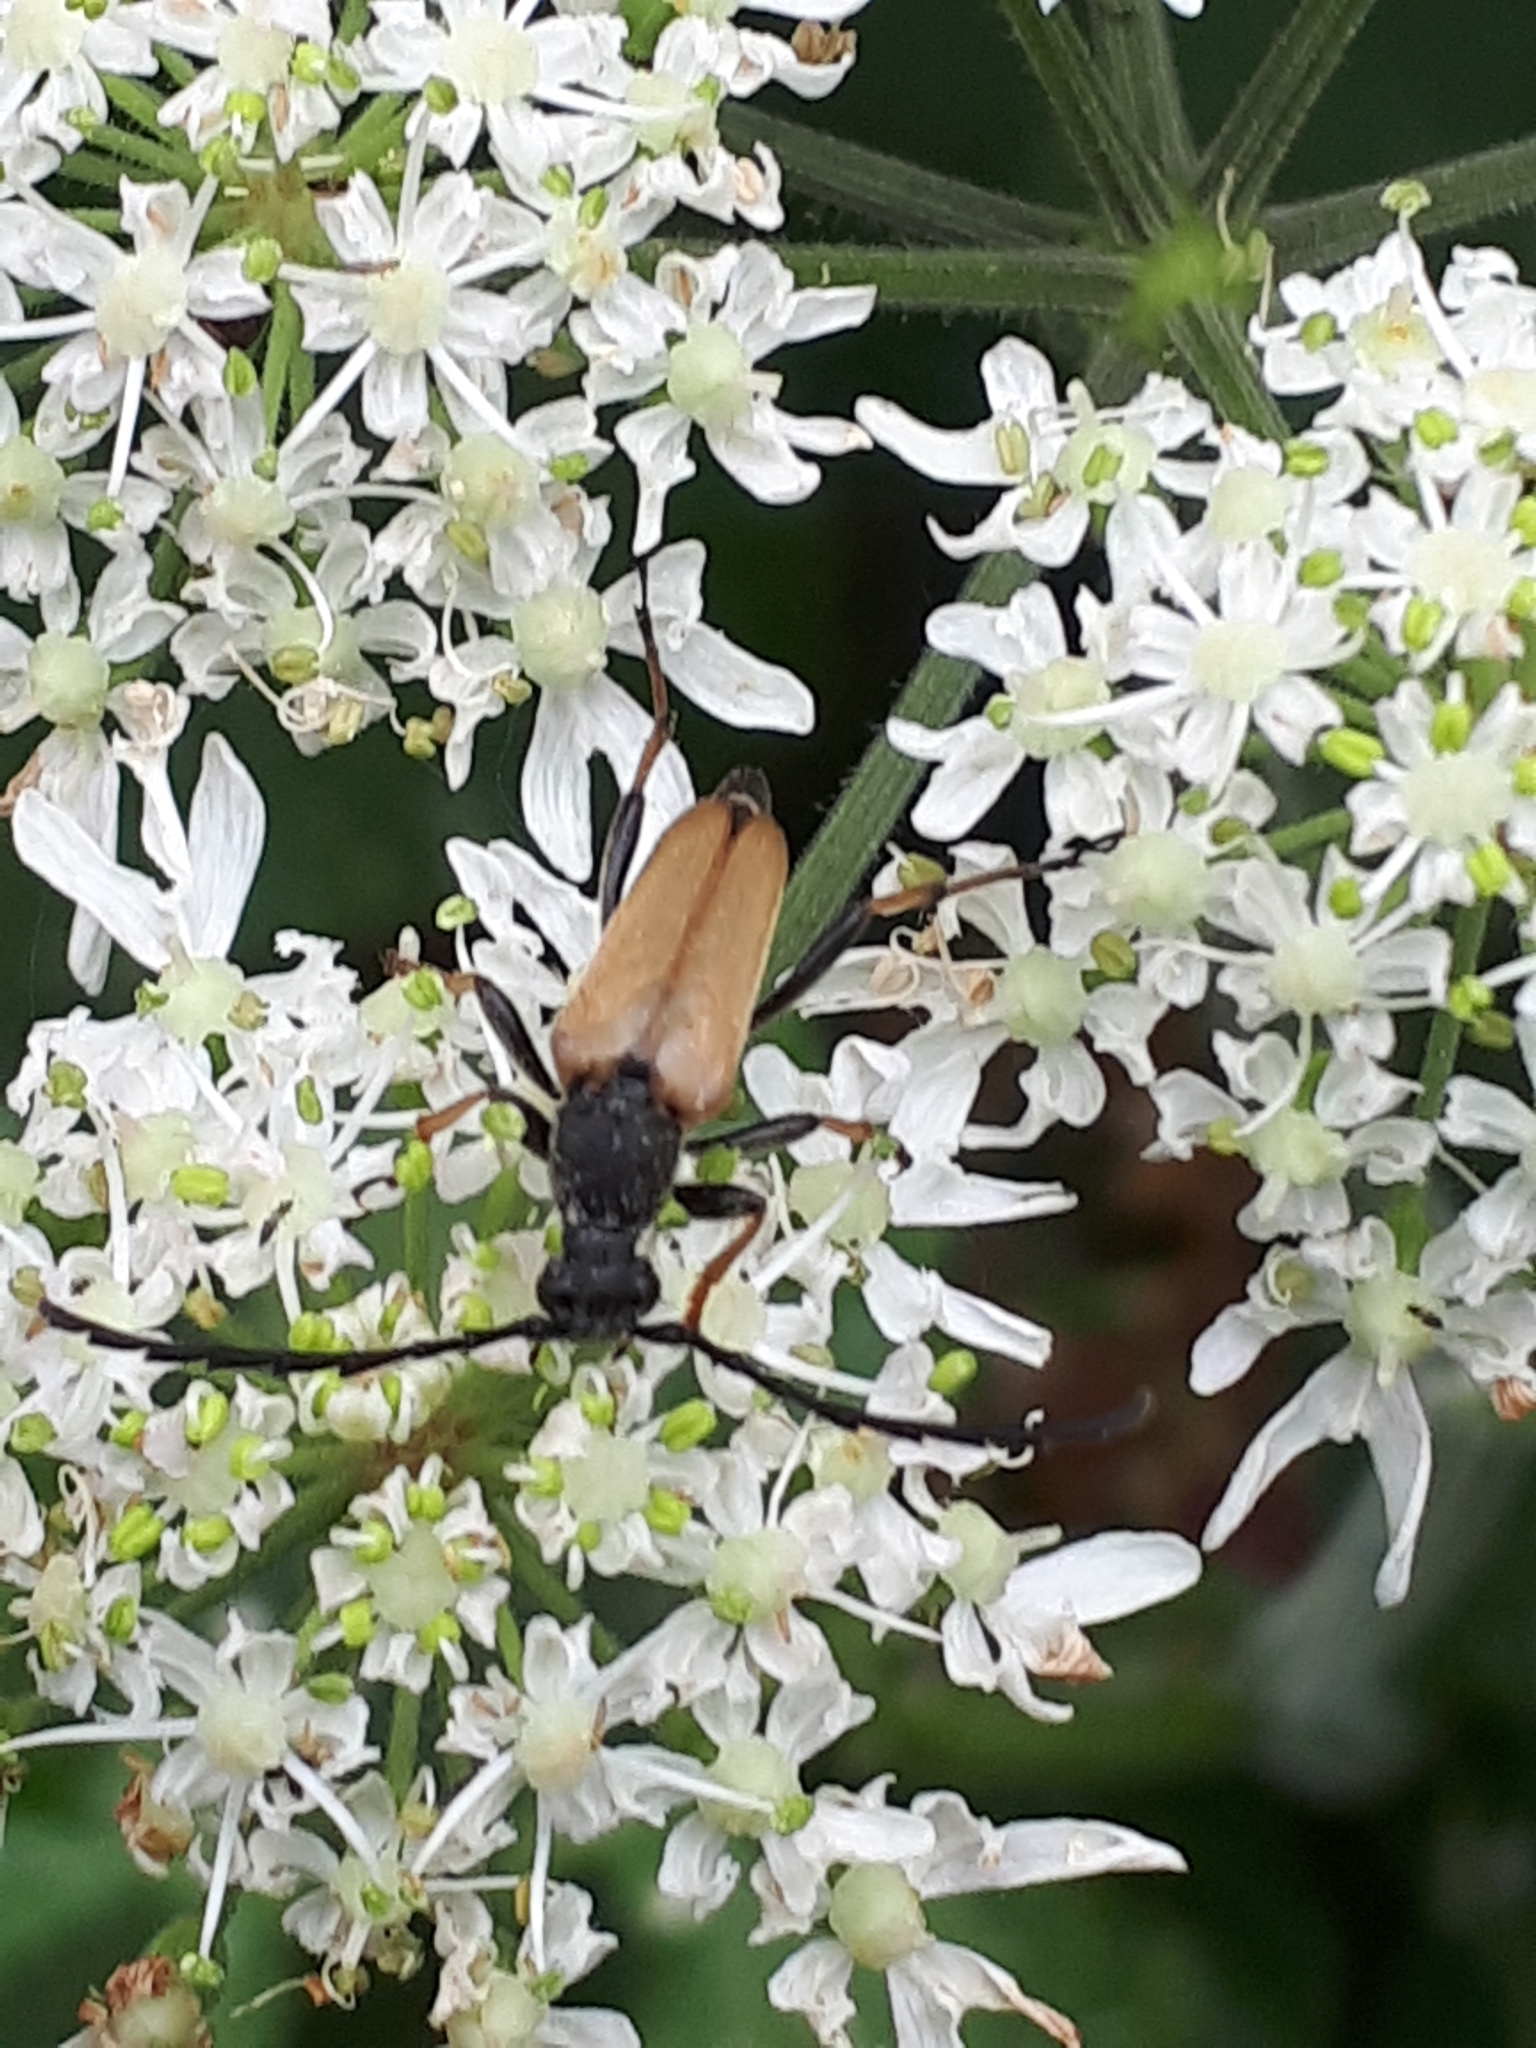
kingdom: Animalia
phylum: Arthropoda
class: Insecta
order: Coleoptera
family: Cerambycidae
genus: Stictoleptura
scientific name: Stictoleptura rubra
